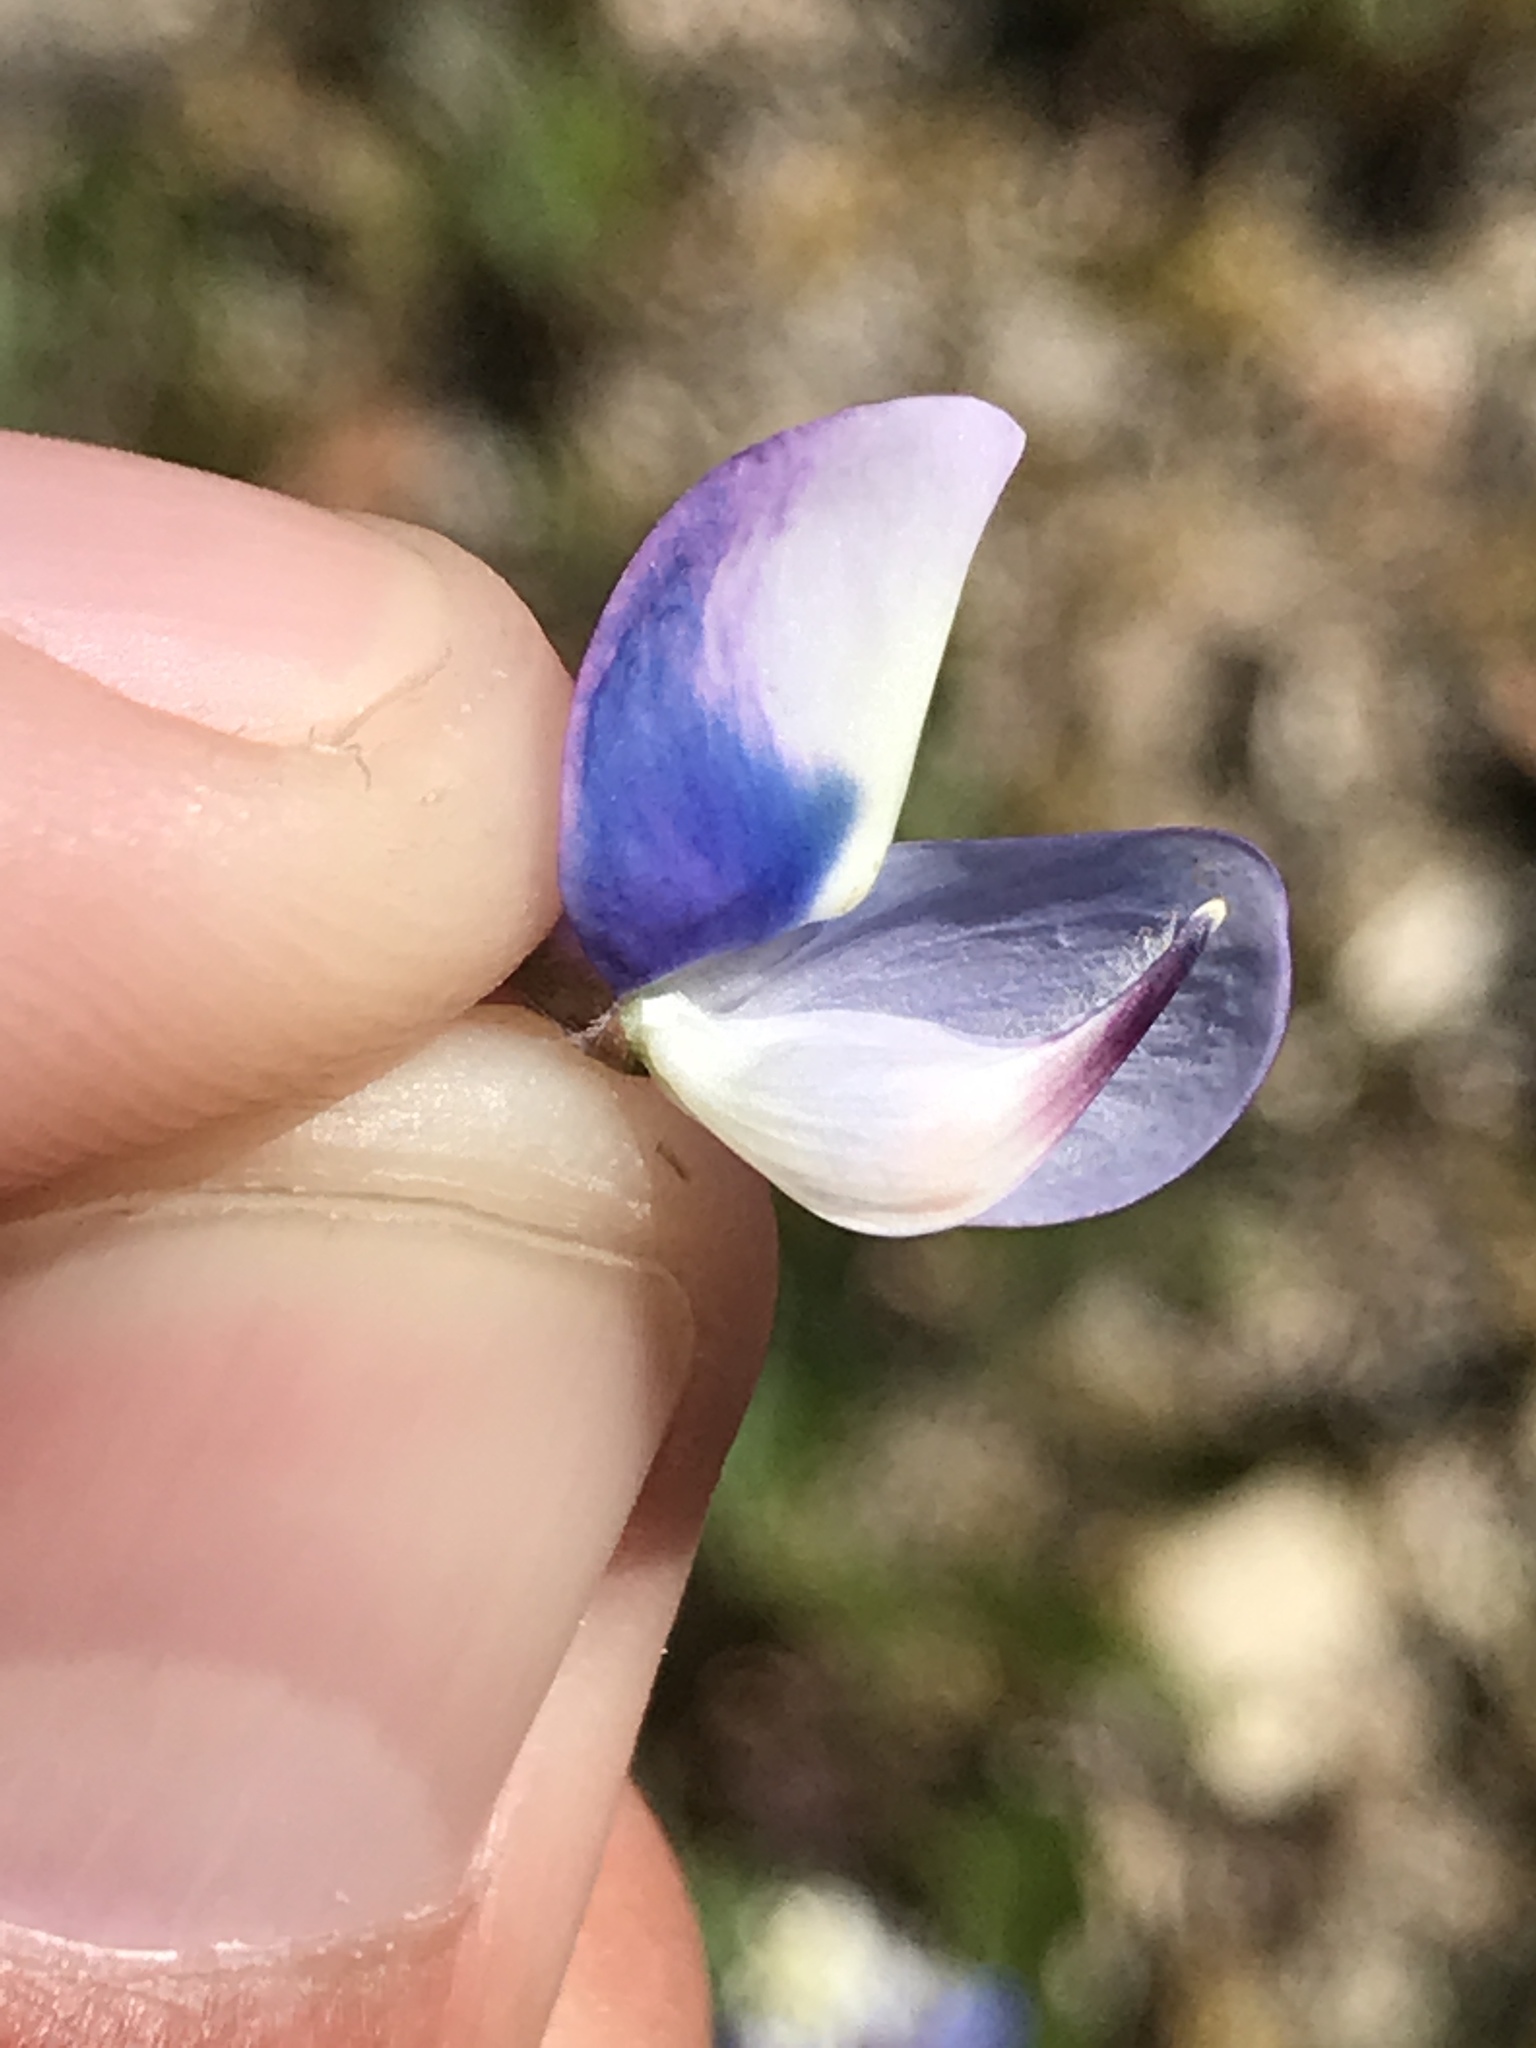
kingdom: Plantae
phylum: Tracheophyta
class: Magnoliopsida
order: Fabales
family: Fabaceae
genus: Lupinus
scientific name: Lupinus nanus
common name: Orean blue lupin
